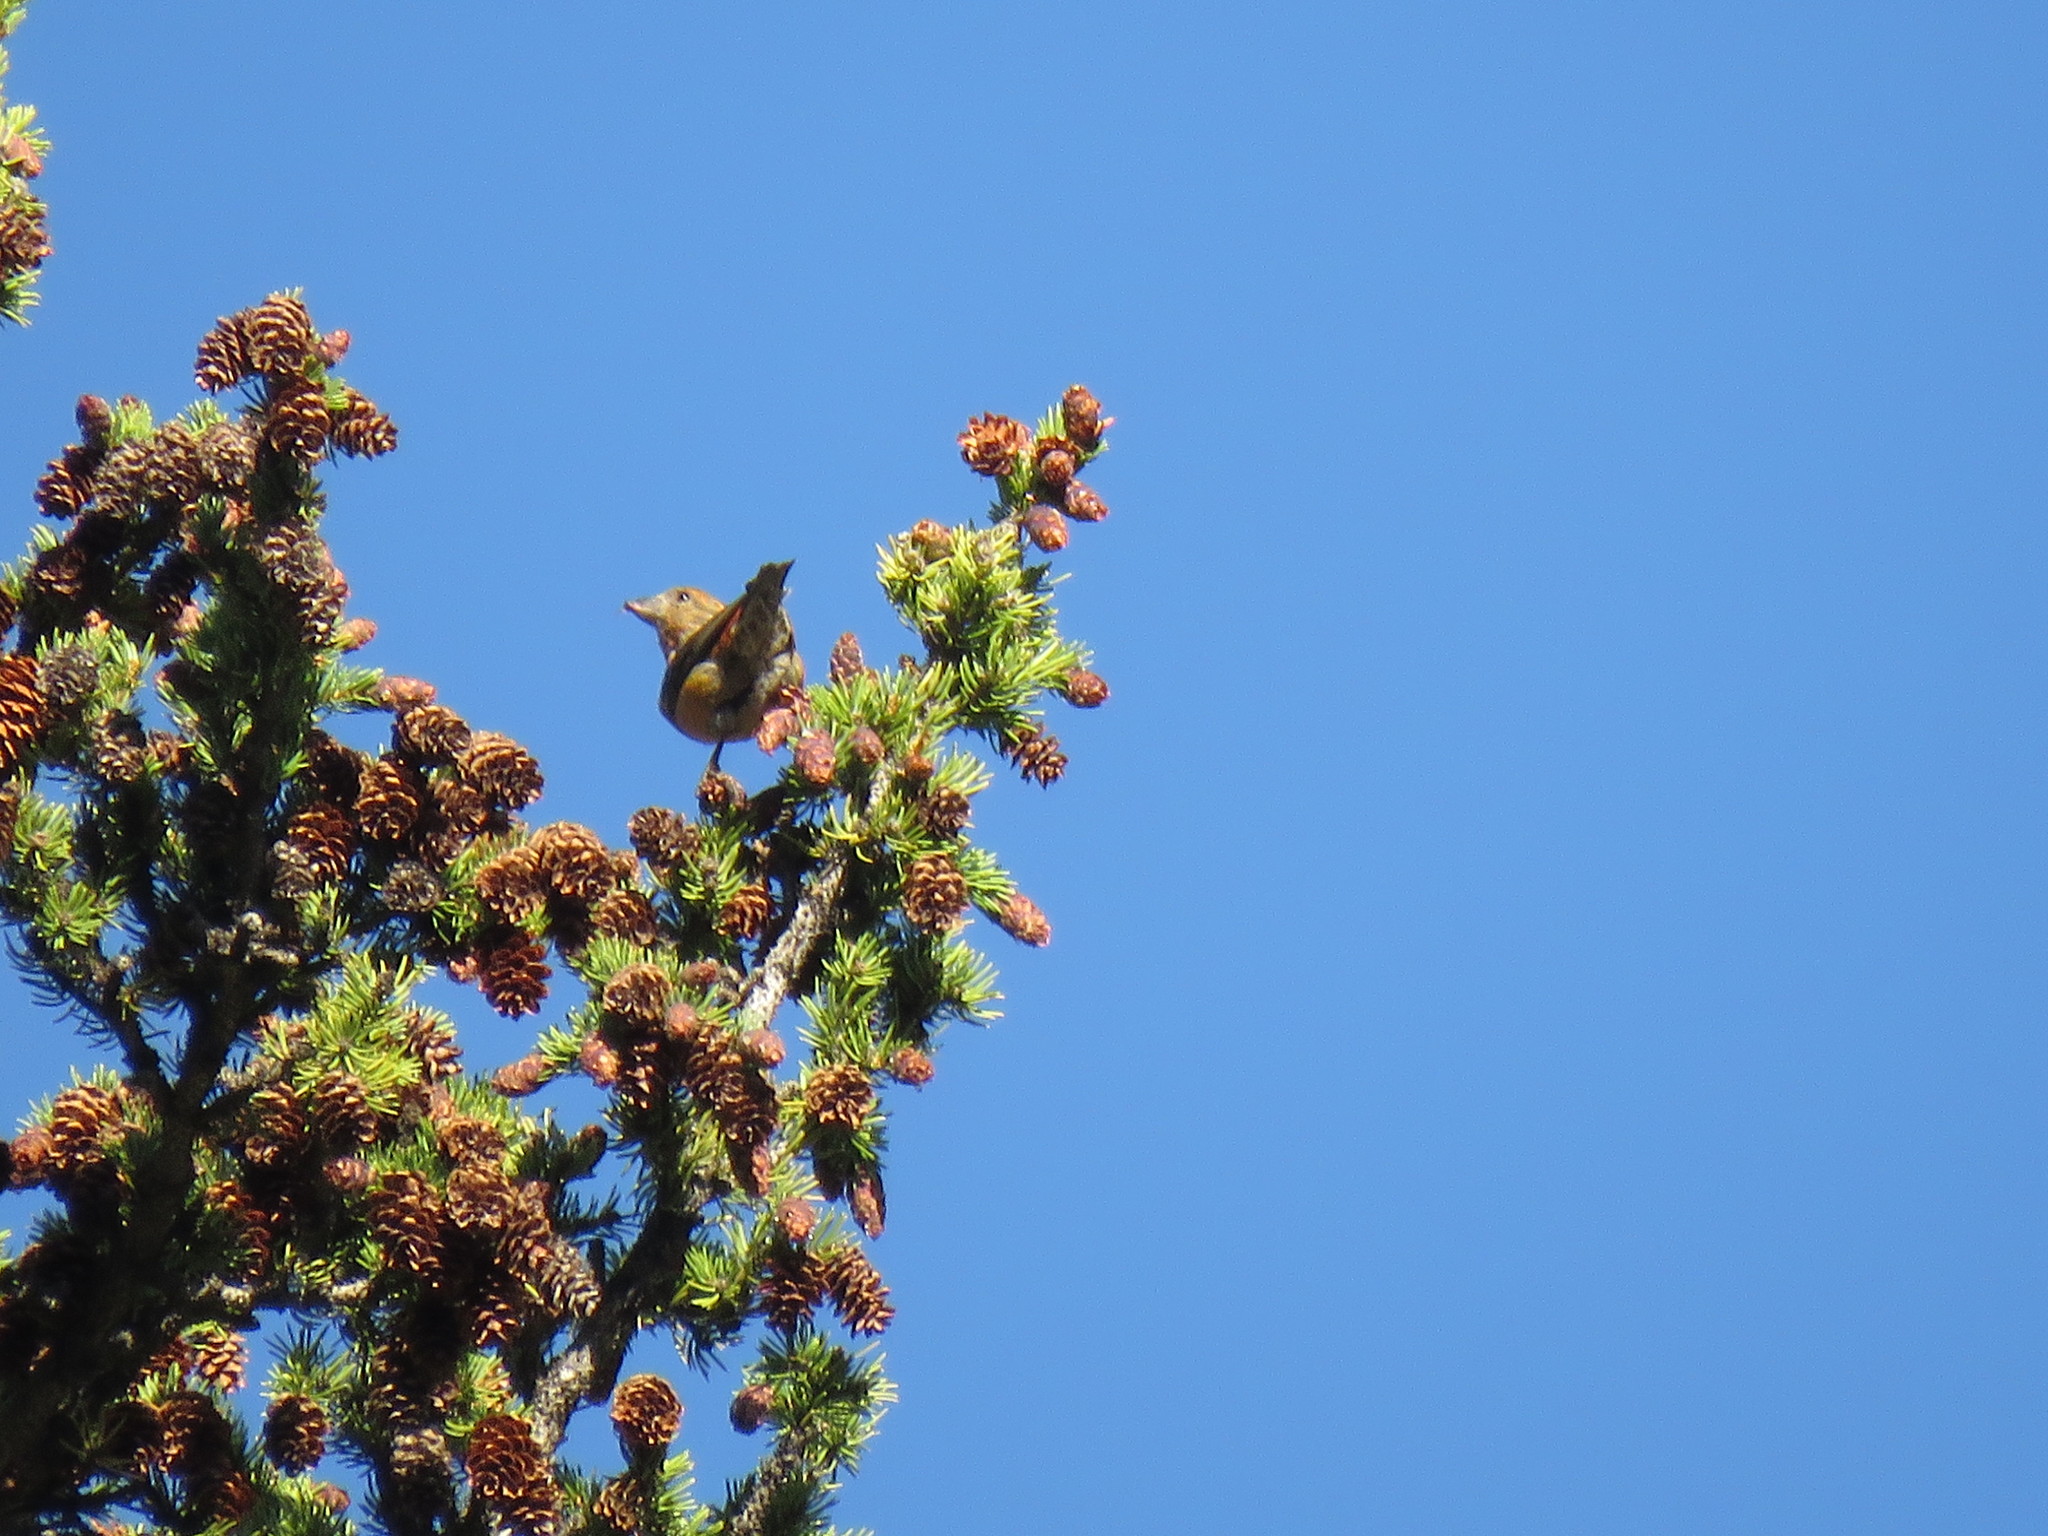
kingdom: Animalia
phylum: Chordata
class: Aves
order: Passeriformes
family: Fringillidae
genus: Loxia
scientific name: Loxia curvirostra
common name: Red crossbill
